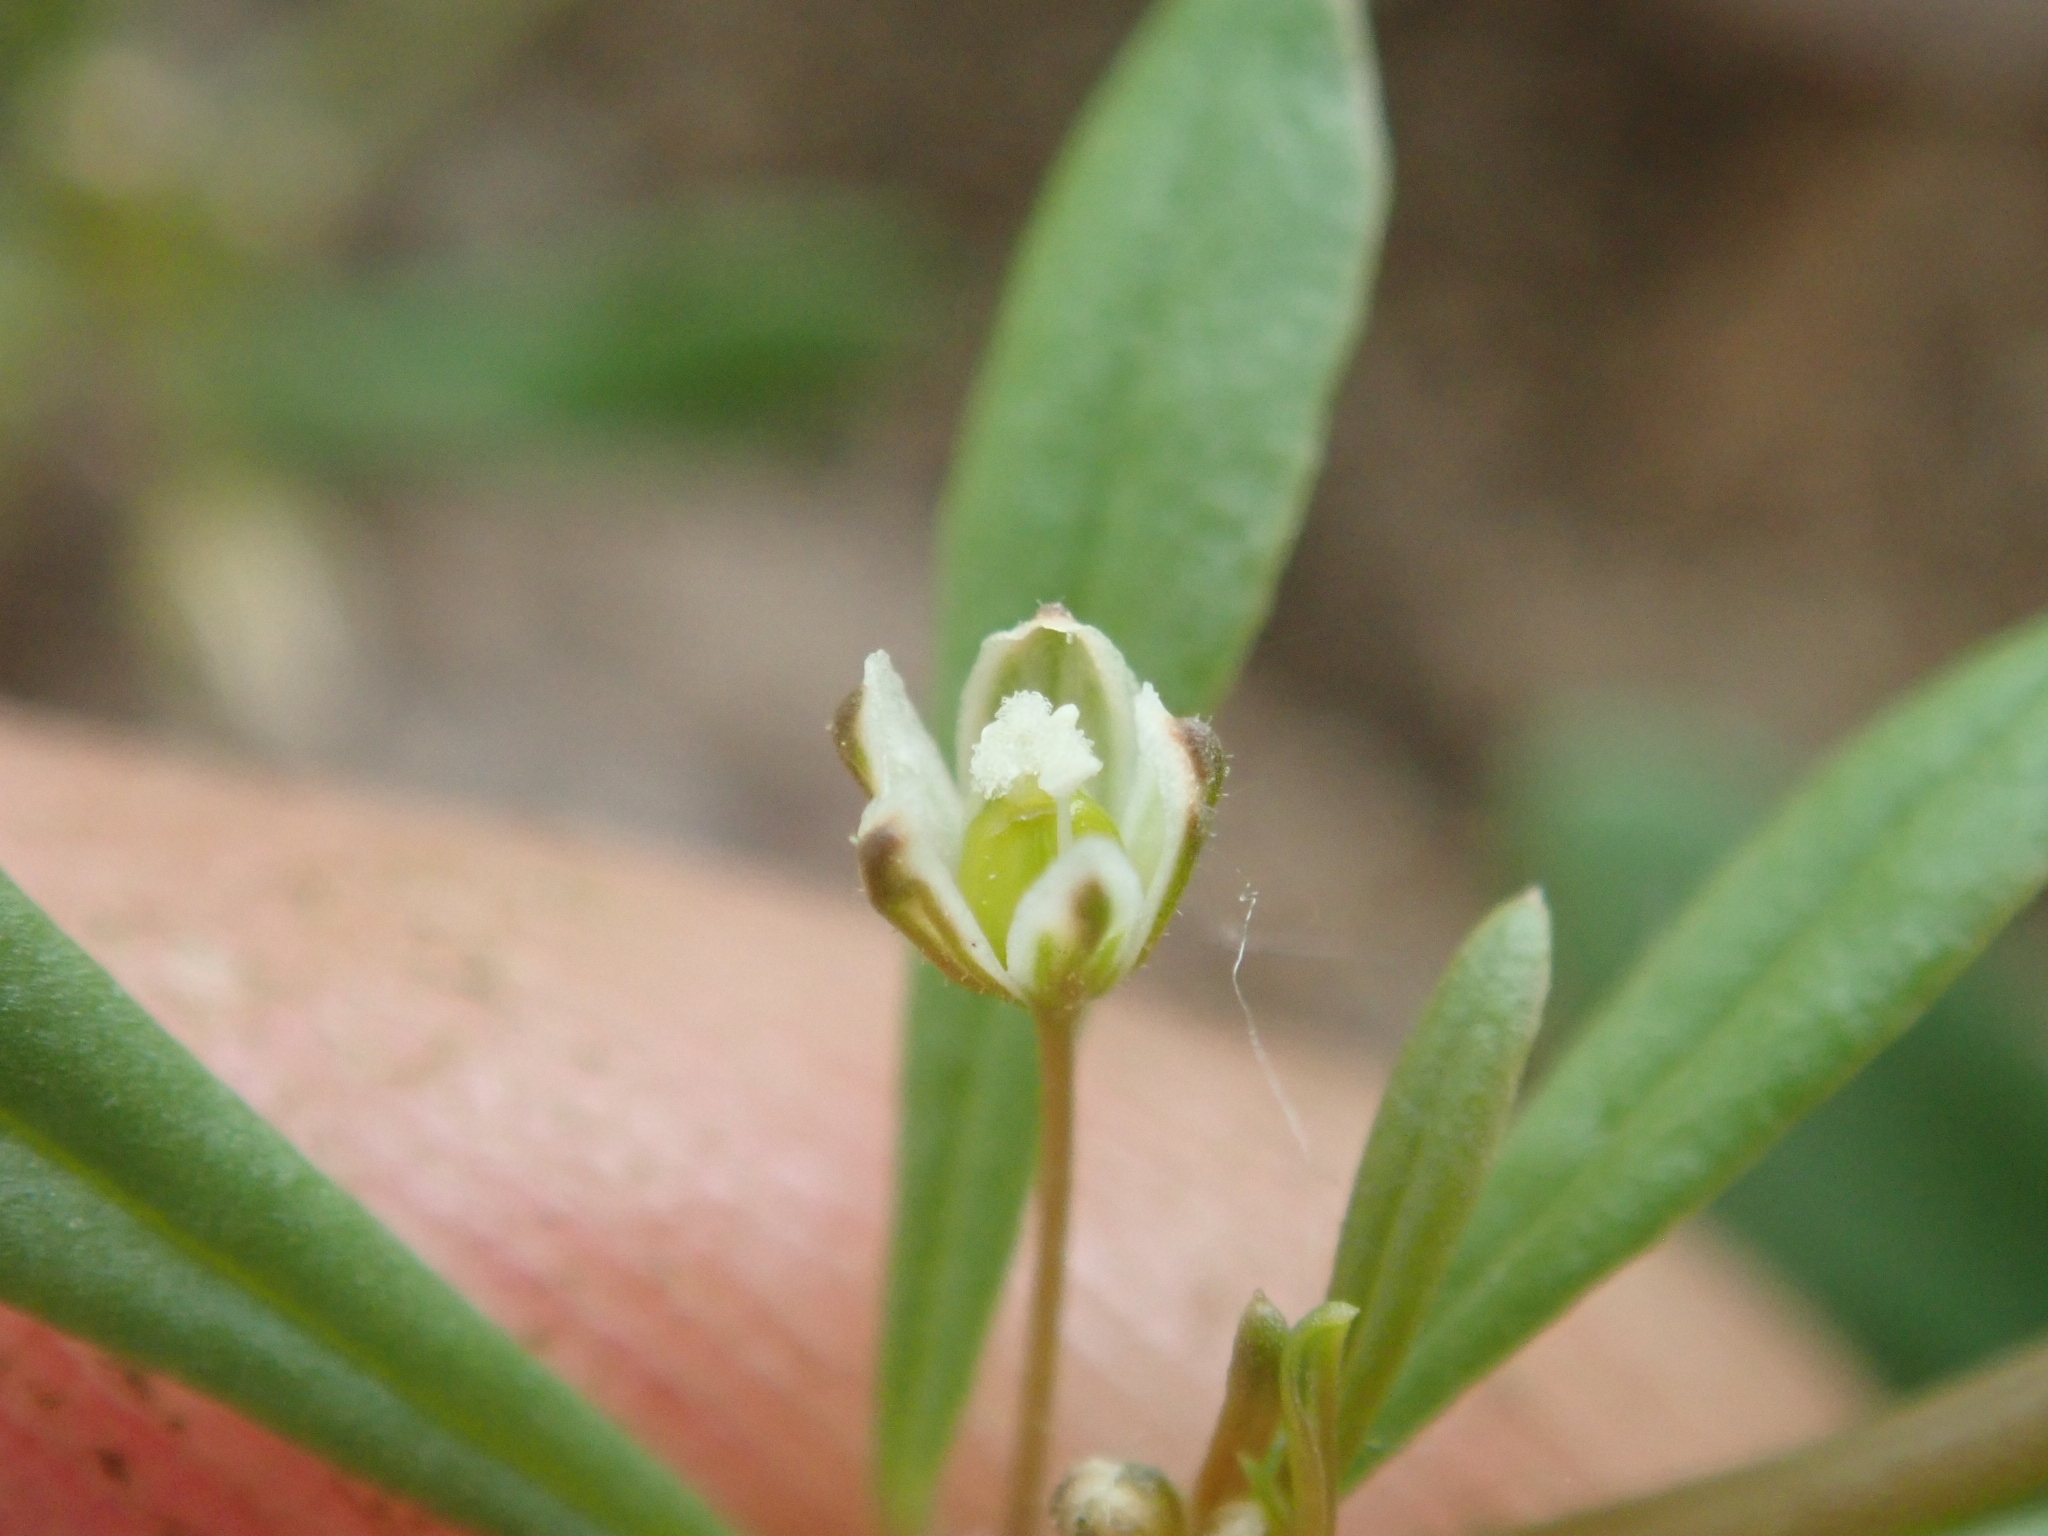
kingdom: Plantae
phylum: Tracheophyta
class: Magnoliopsida
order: Caryophyllales
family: Molluginaceae
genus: Mollugo
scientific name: Mollugo verticillata
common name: Green carpetweed
